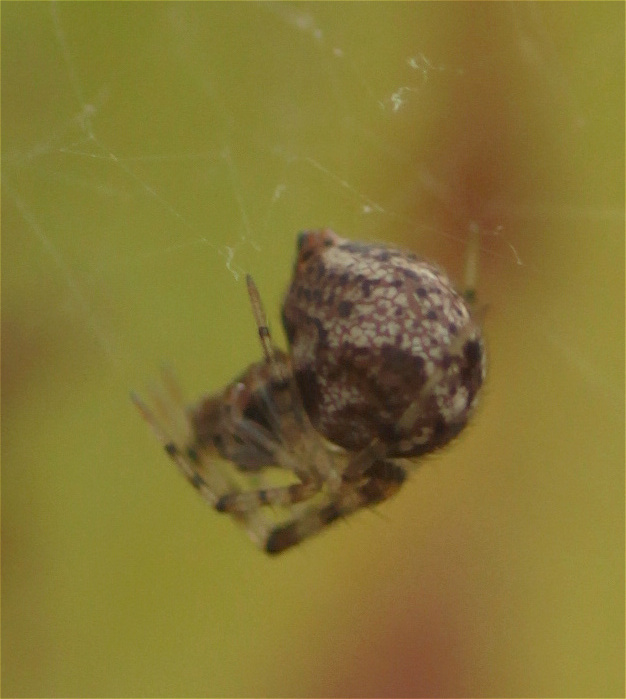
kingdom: Animalia
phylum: Arthropoda
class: Arachnida
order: Araneae
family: Theridiidae
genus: Parasteatoda
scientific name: Parasteatoda tepidariorum
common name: Common house spider
